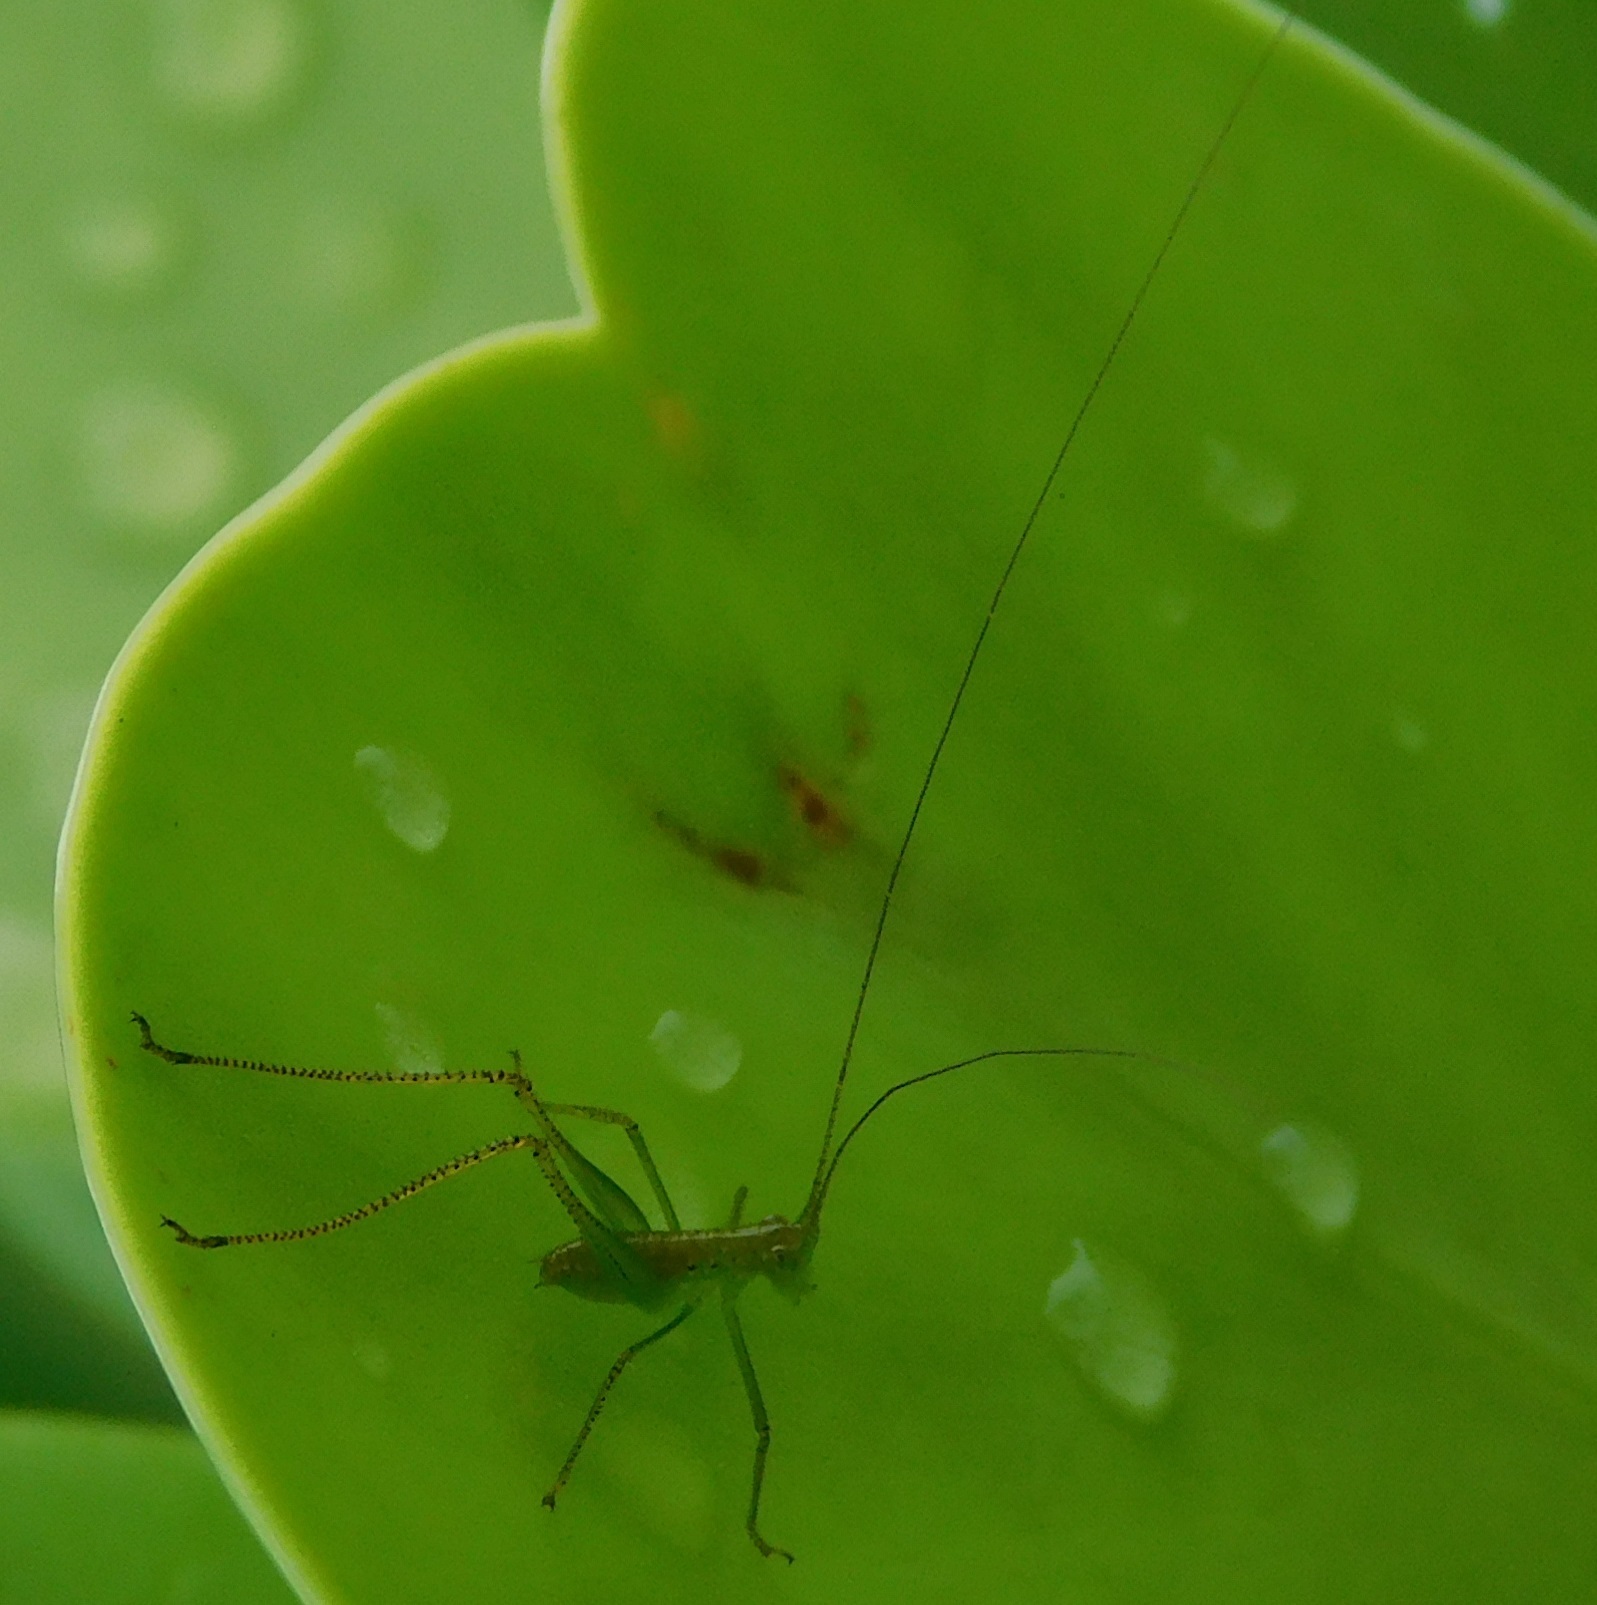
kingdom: Animalia
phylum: Arthropoda
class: Insecta
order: Orthoptera
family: Tettigoniidae
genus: Phaneroptera
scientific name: Phaneroptera
